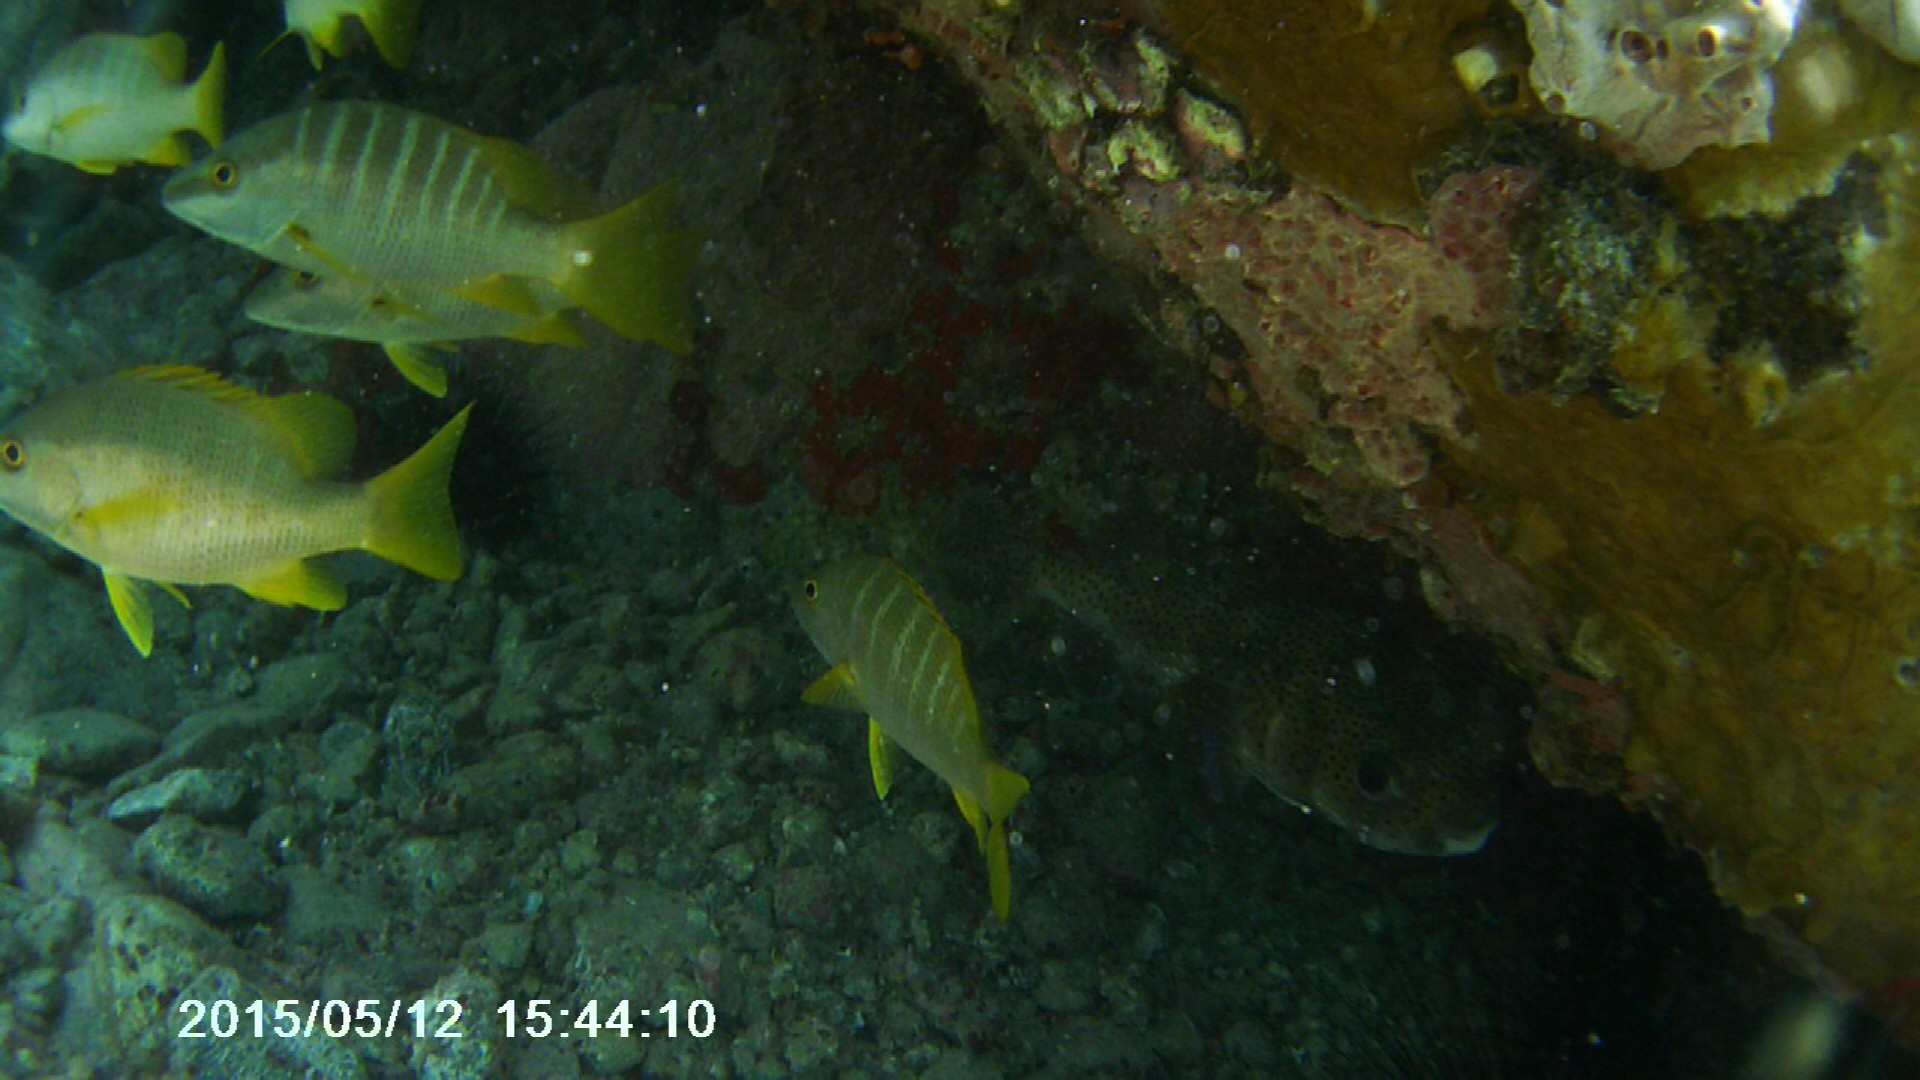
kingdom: Animalia
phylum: Chordata
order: Perciformes
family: Lutjanidae
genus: Lutjanus
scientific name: Lutjanus apodus
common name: Schoolmaster
